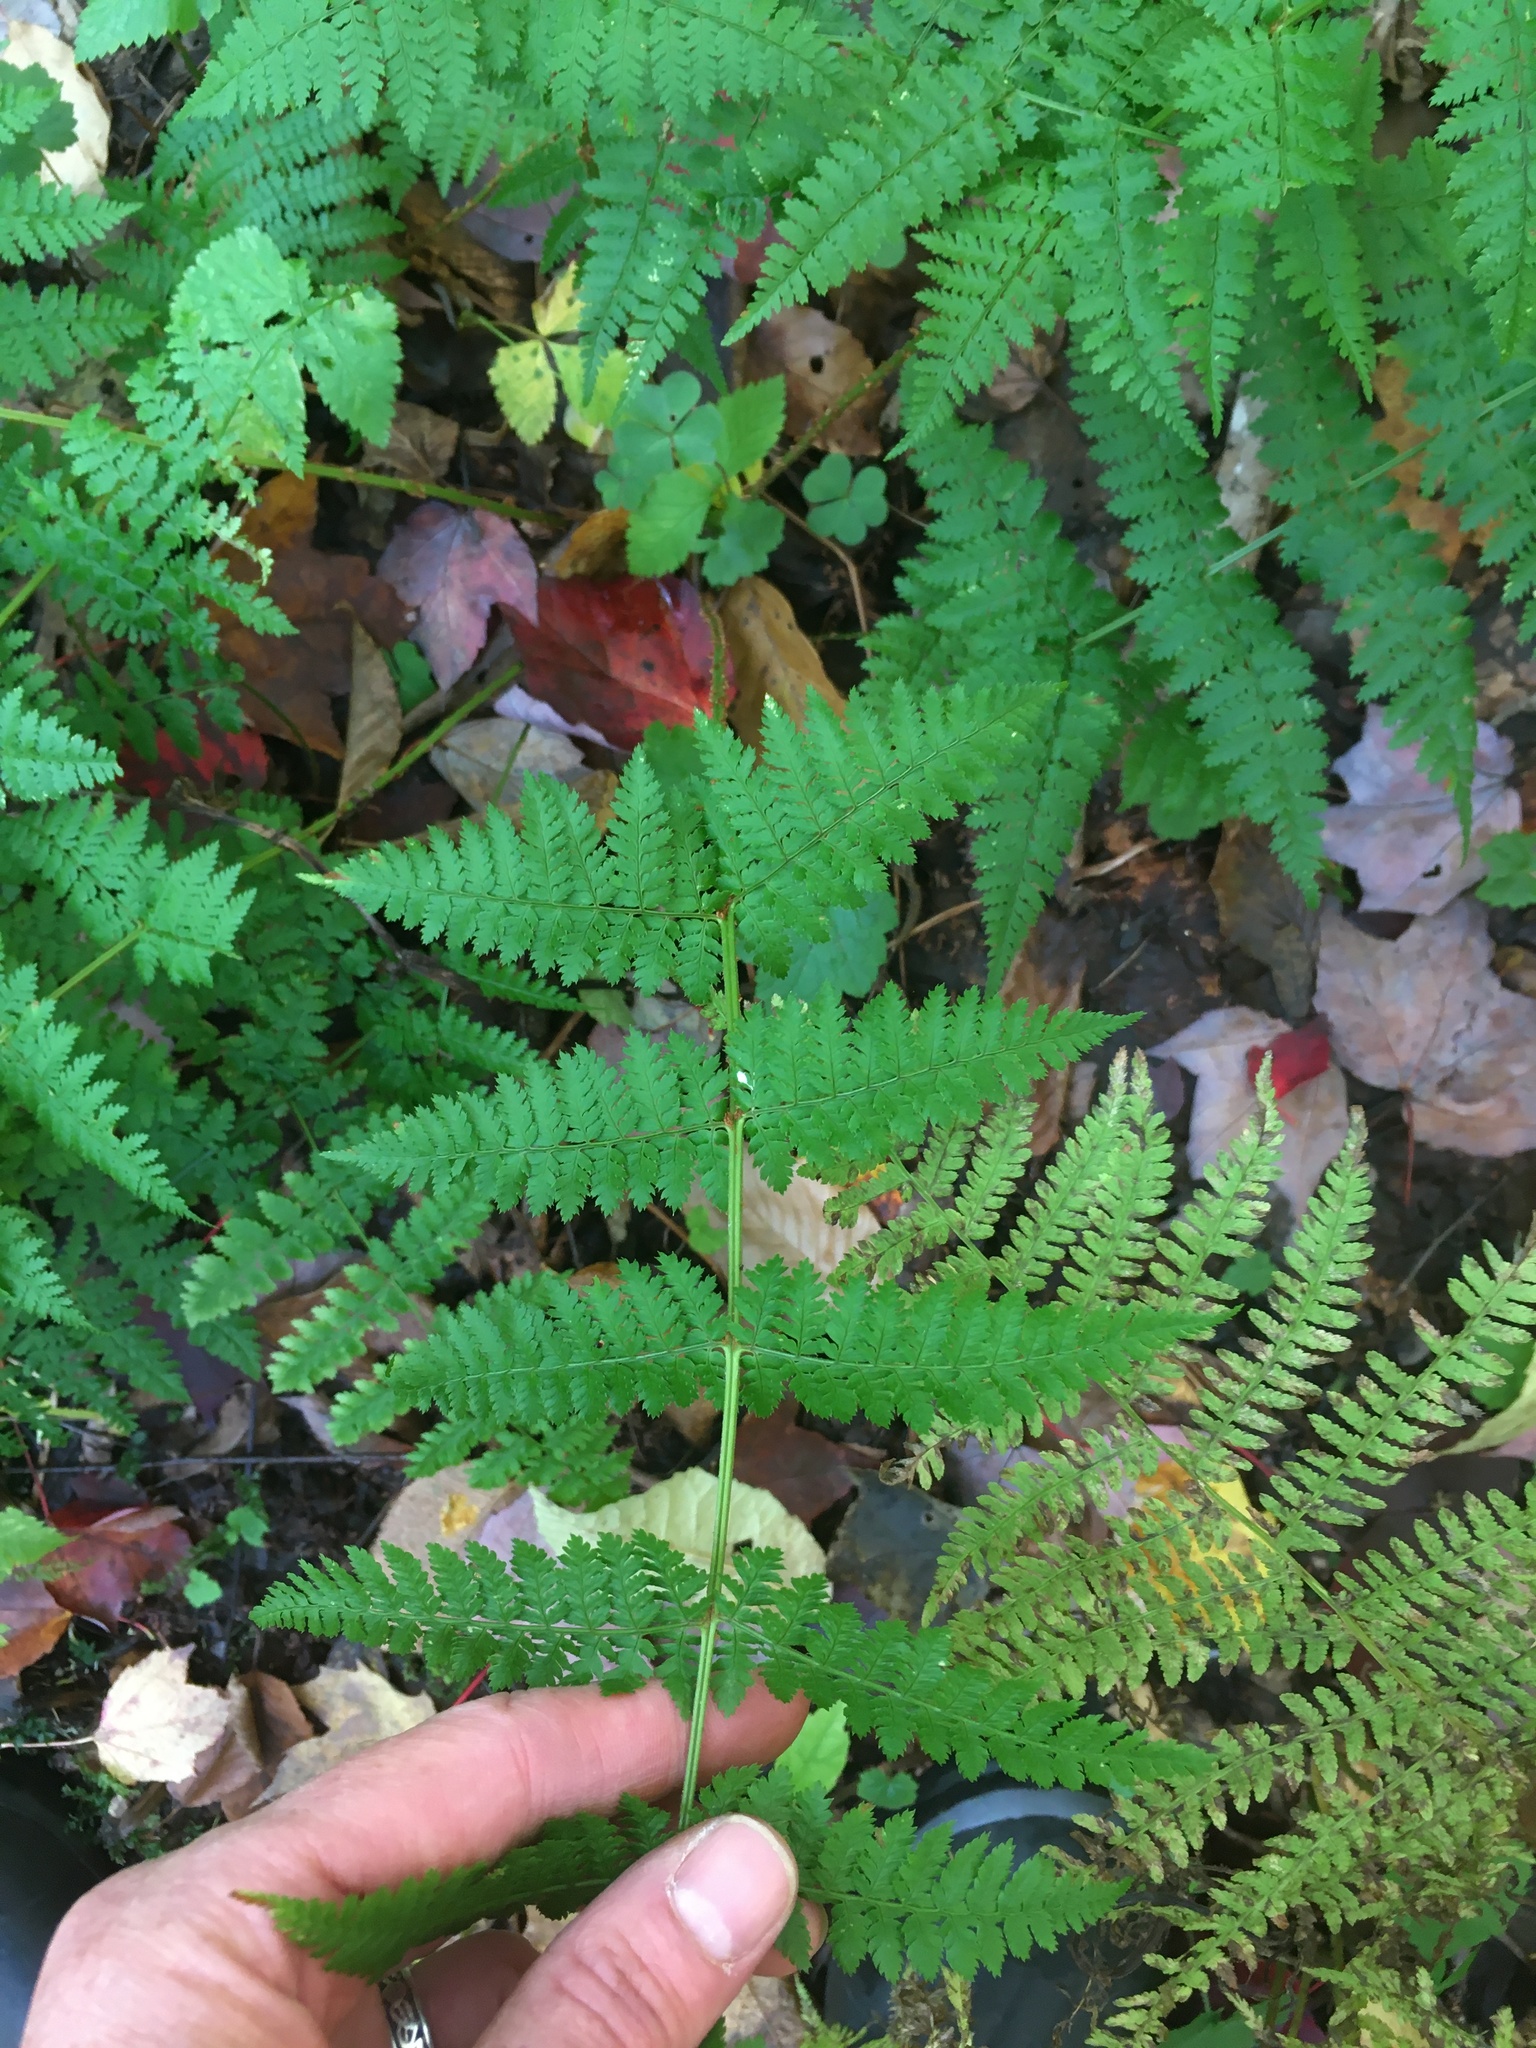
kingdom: Plantae
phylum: Tracheophyta
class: Polypodiopsida
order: Polypodiales
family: Dryopteridaceae
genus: Dryopteris
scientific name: Dryopteris intermedia
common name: Evergreen wood fern
